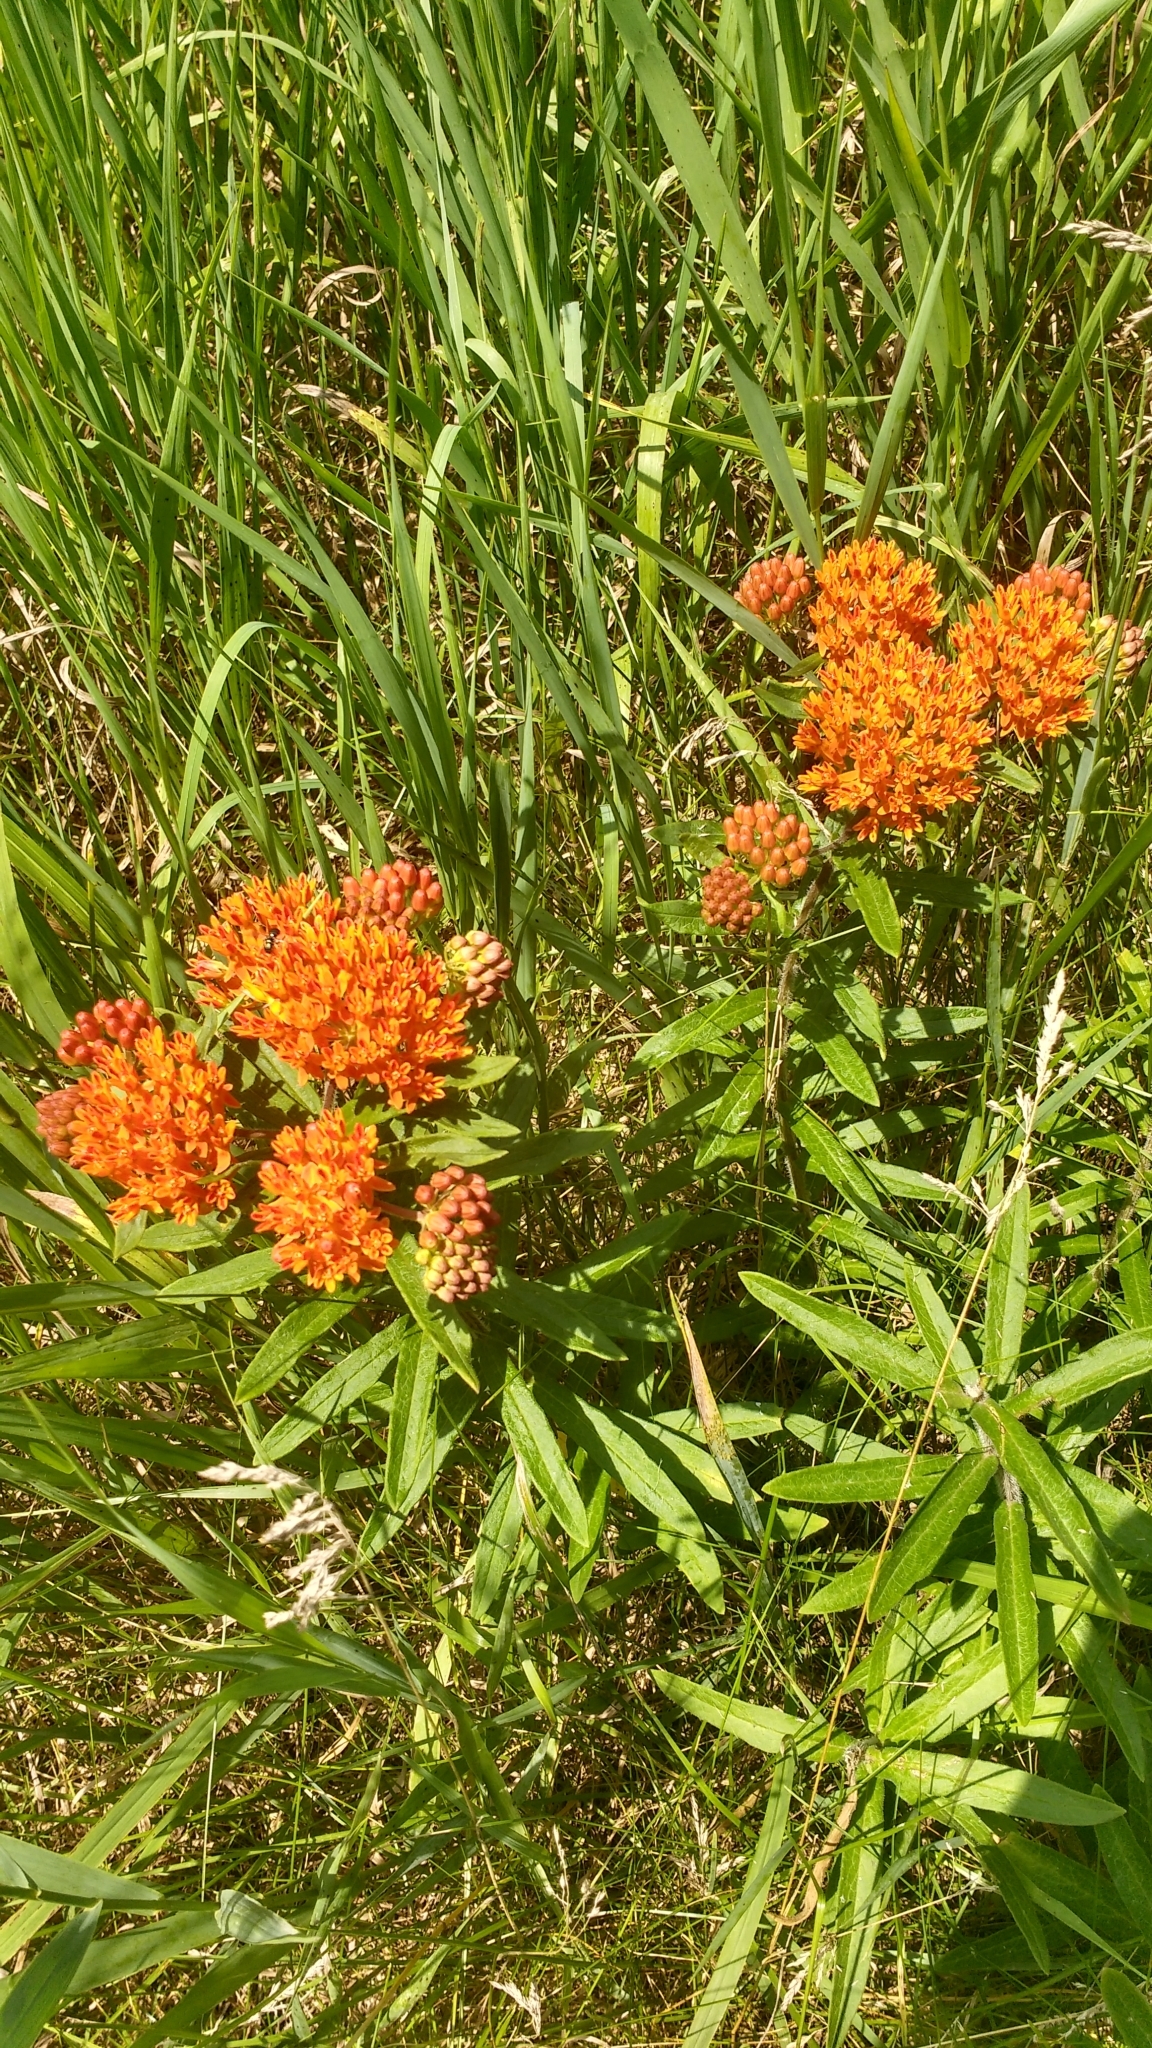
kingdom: Plantae
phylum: Tracheophyta
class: Magnoliopsida
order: Gentianales
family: Apocynaceae
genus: Asclepias
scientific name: Asclepias tuberosa
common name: Butterfly milkweed
